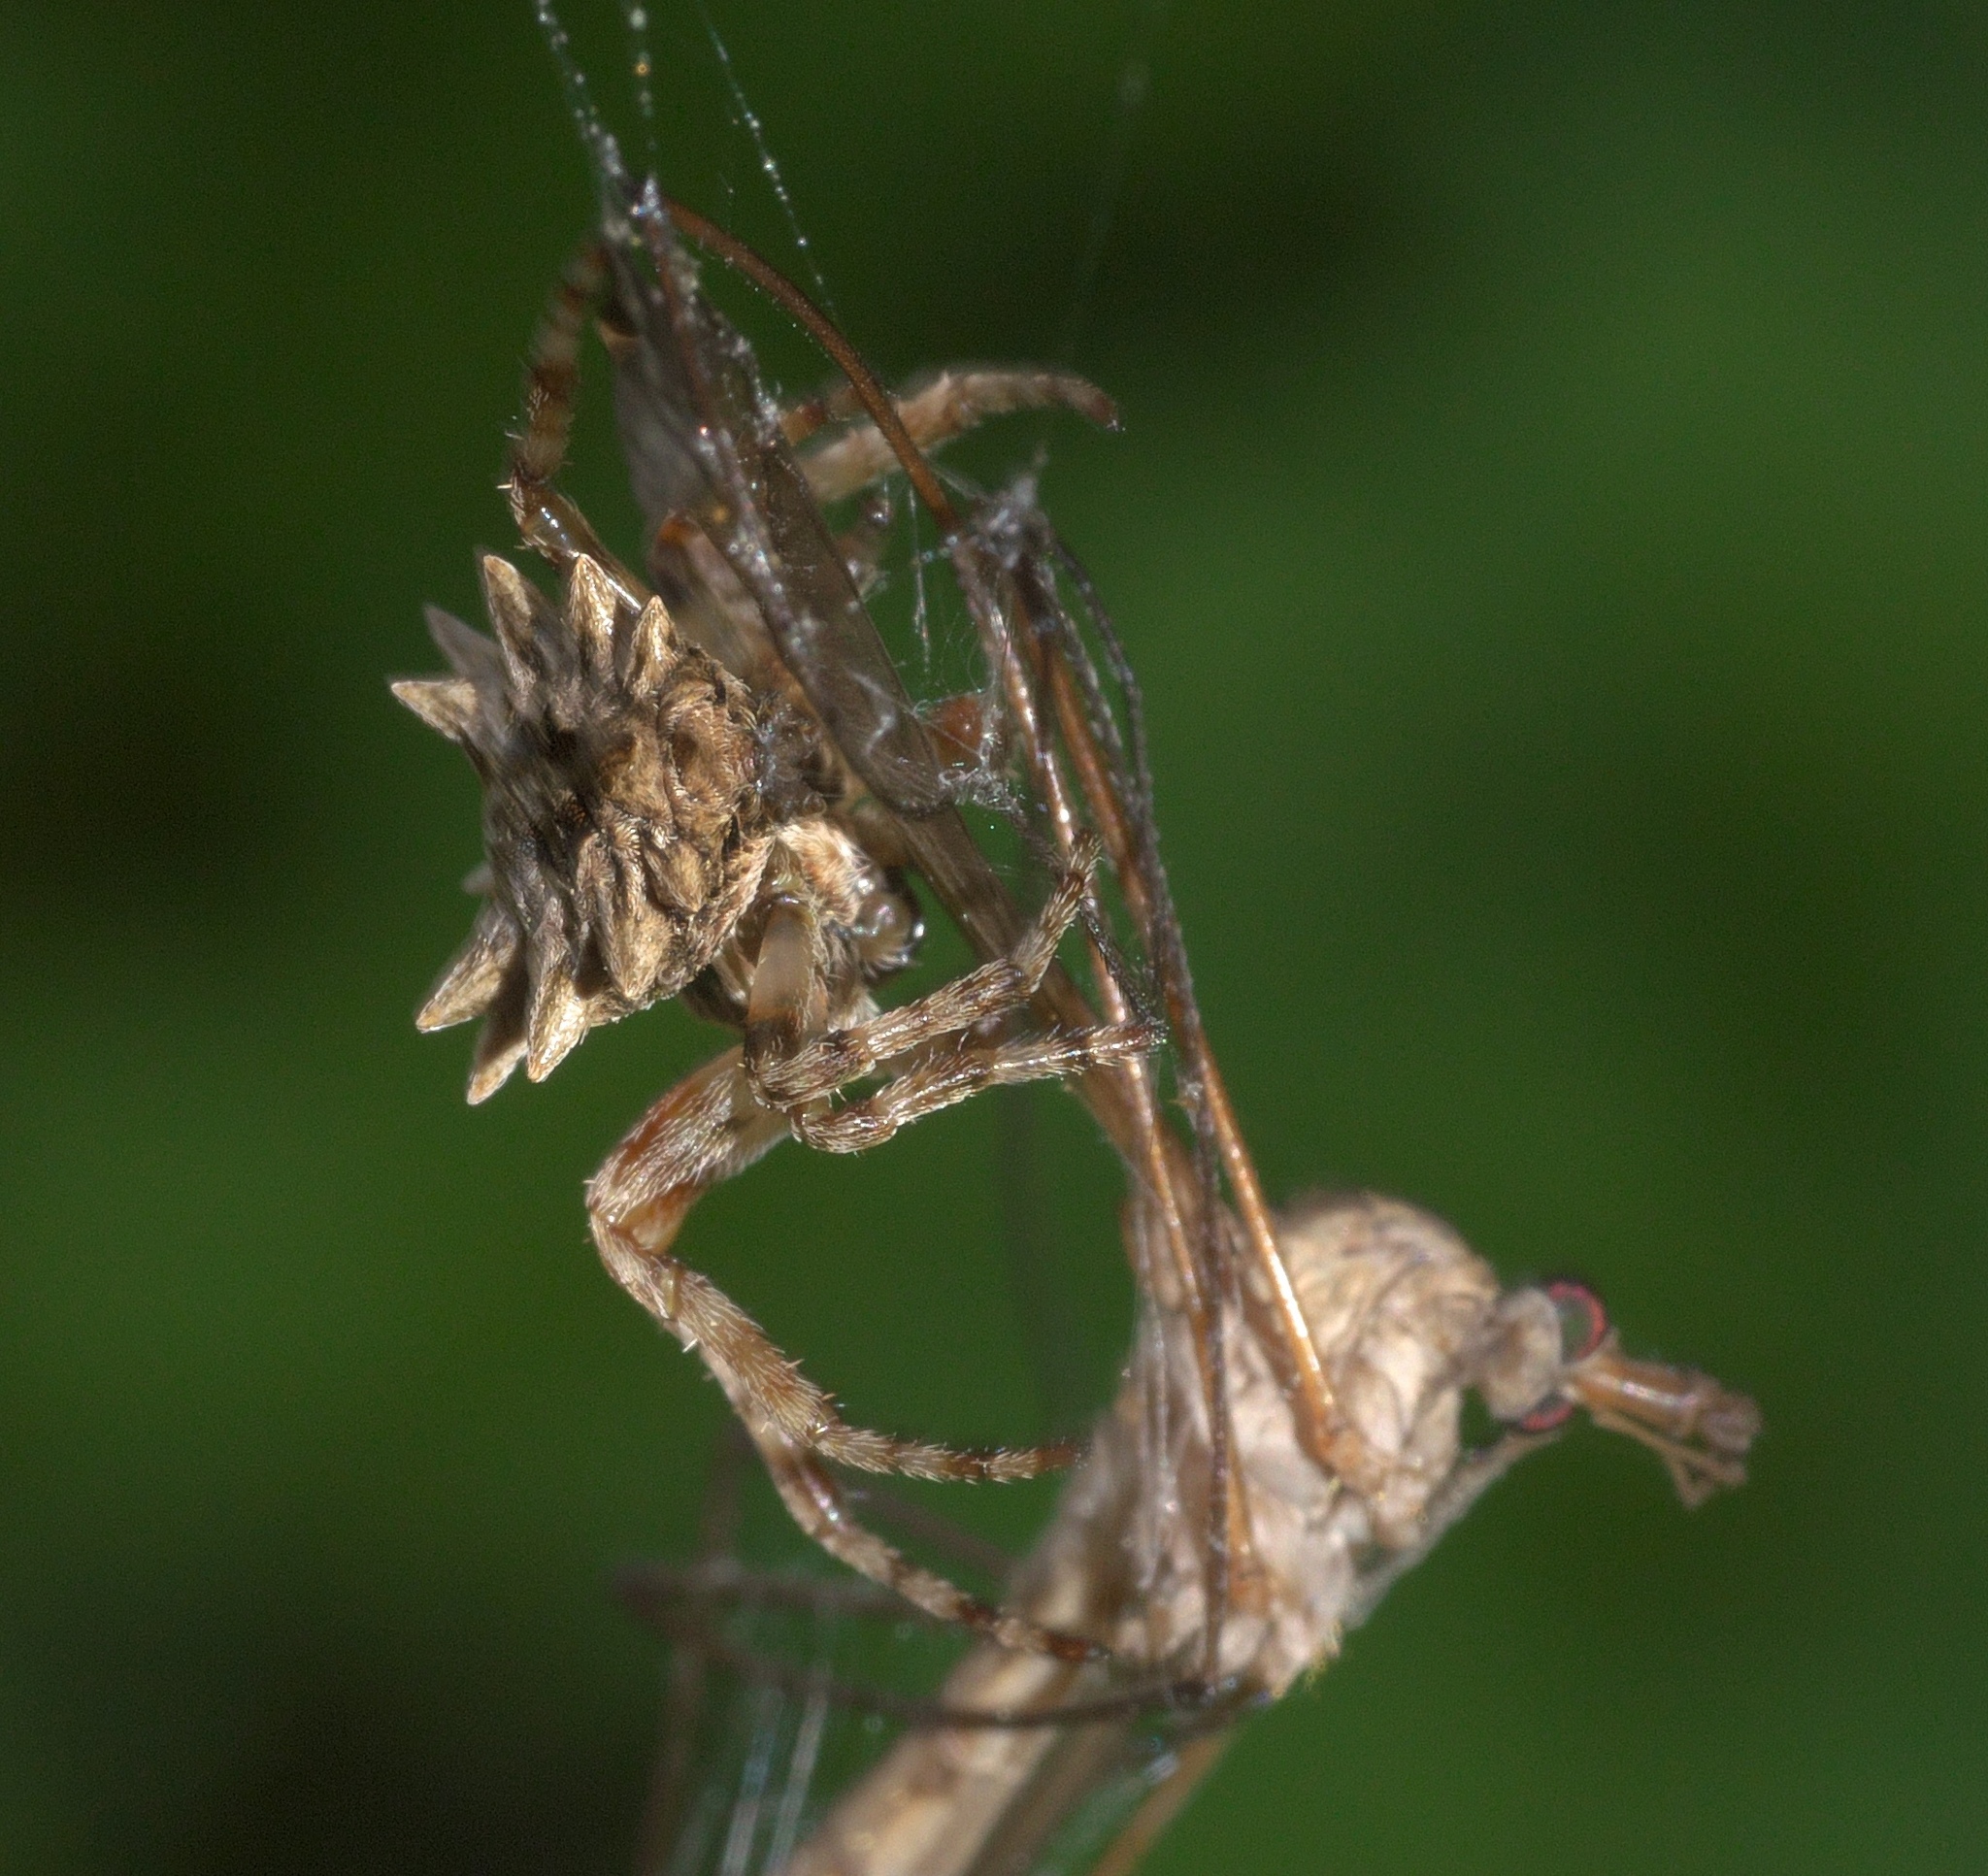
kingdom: Animalia
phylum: Arthropoda
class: Arachnida
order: Araneae
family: Araneidae
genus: Acanthepeira
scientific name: Acanthepeira stellata
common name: Starbellied orbweaver
